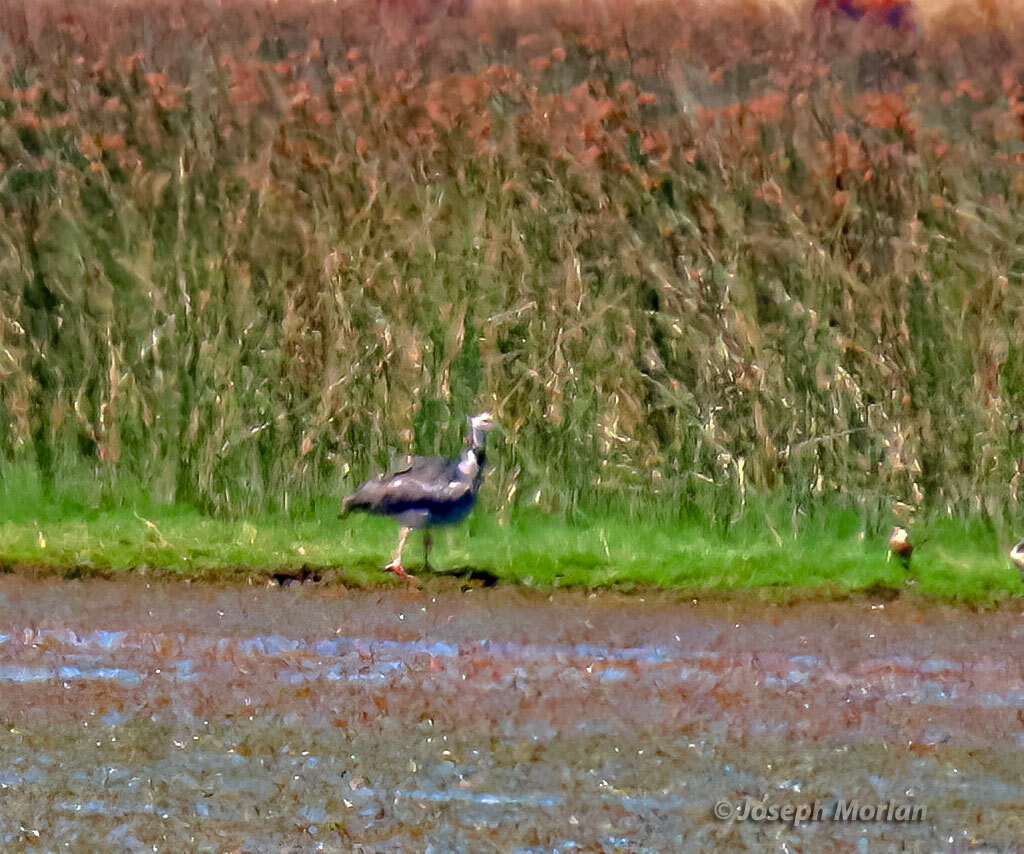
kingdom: Animalia
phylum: Chordata
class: Aves
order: Anseriformes
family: Anhimidae
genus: Chauna
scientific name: Chauna torquata
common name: Southern screamer
